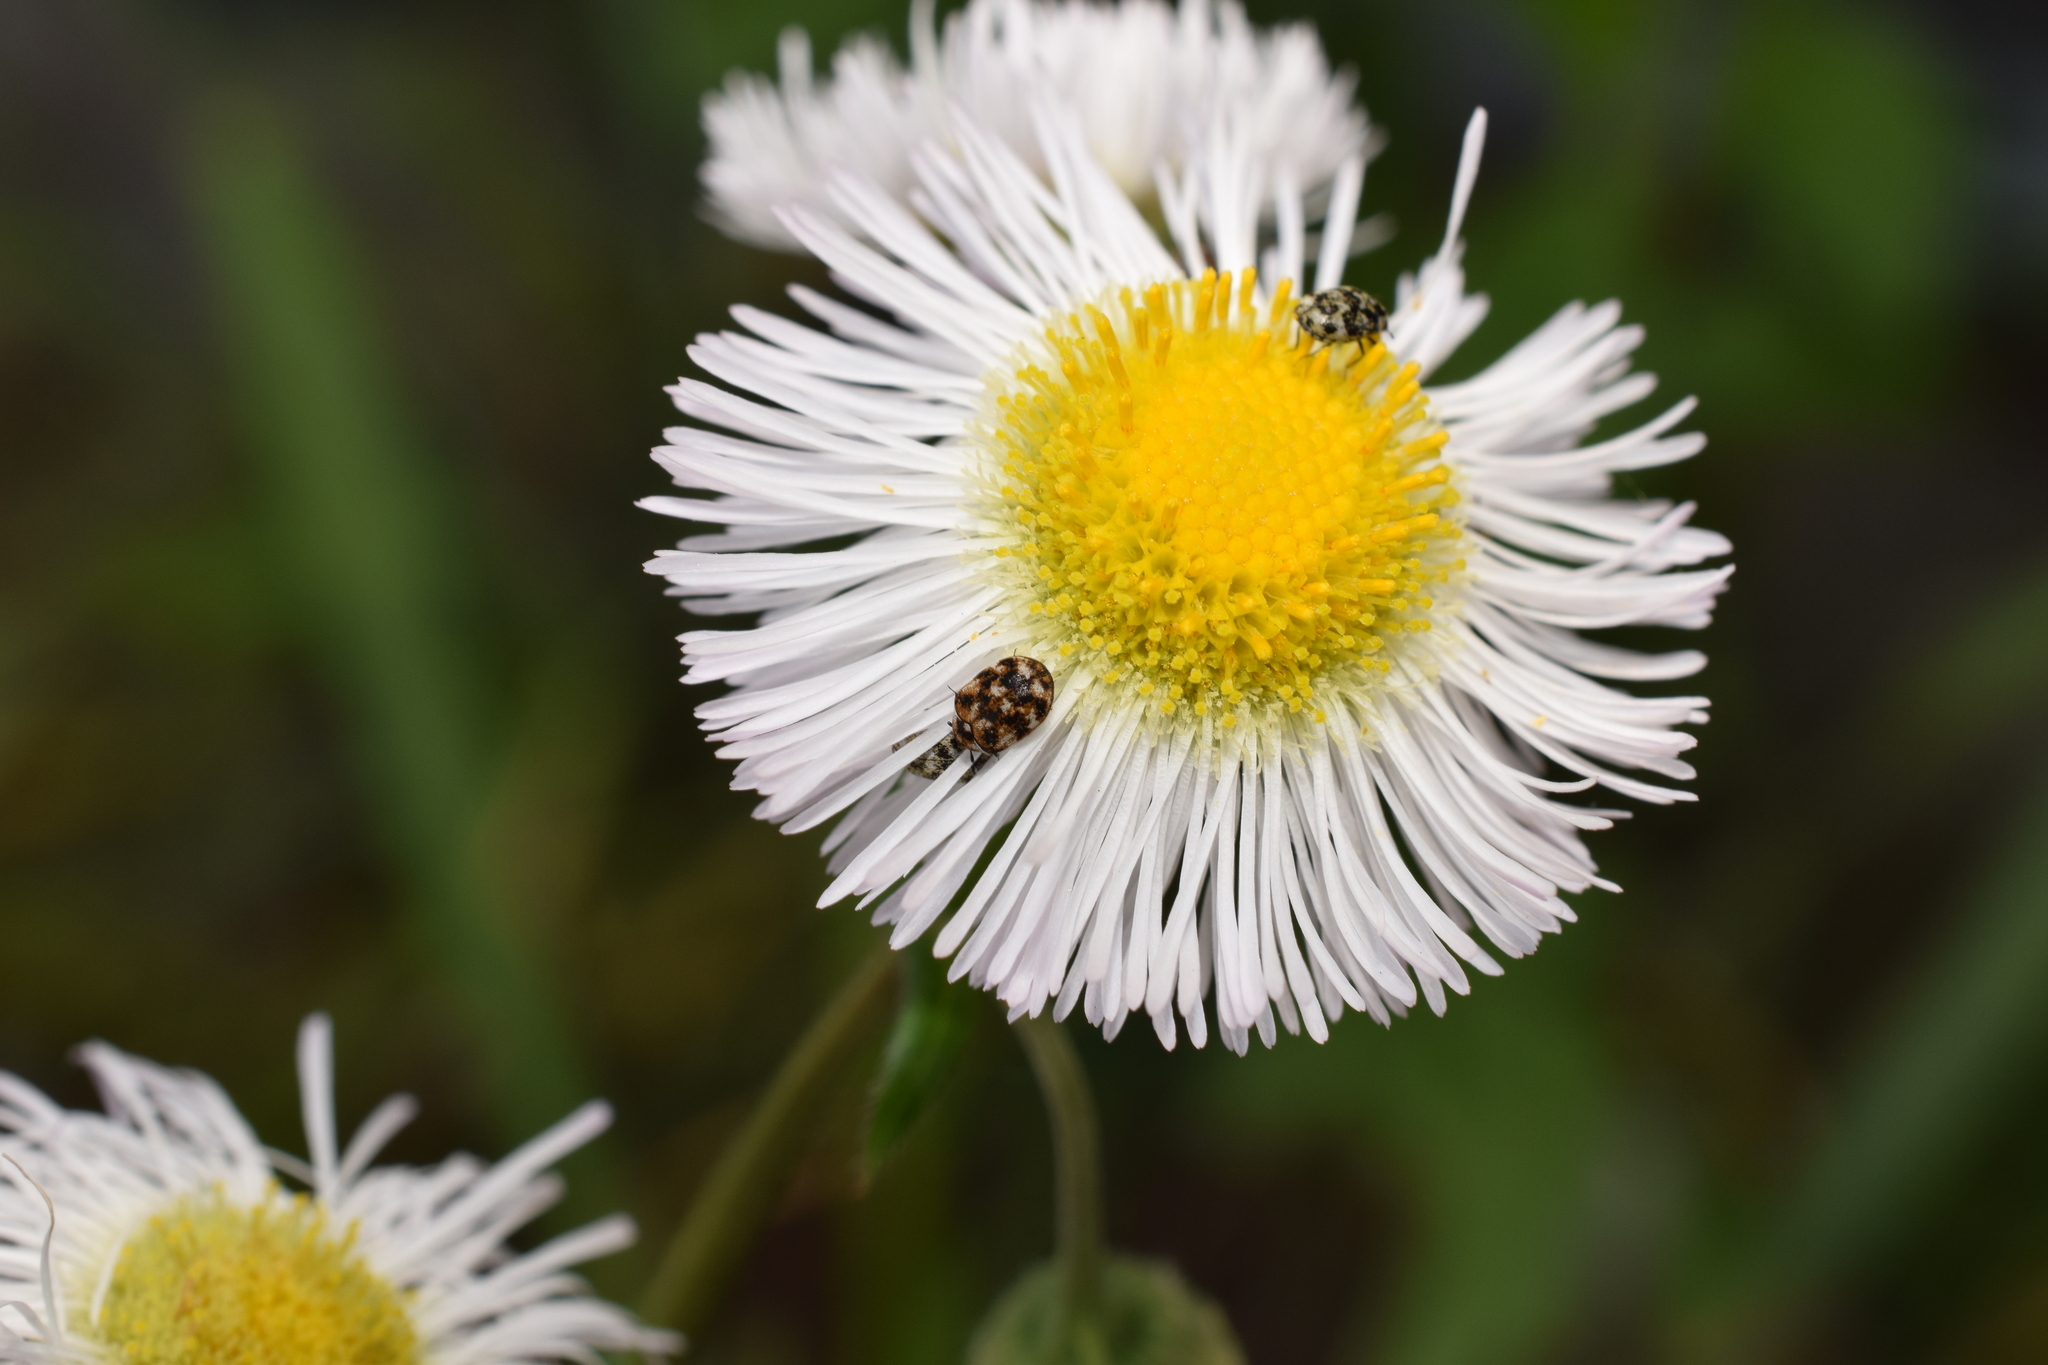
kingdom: Animalia
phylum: Arthropoda
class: Insecta
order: Coleoptera
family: Dermestidae
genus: Anthrenus
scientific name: Anthrenus verbasci
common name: Varied carpet beetle
